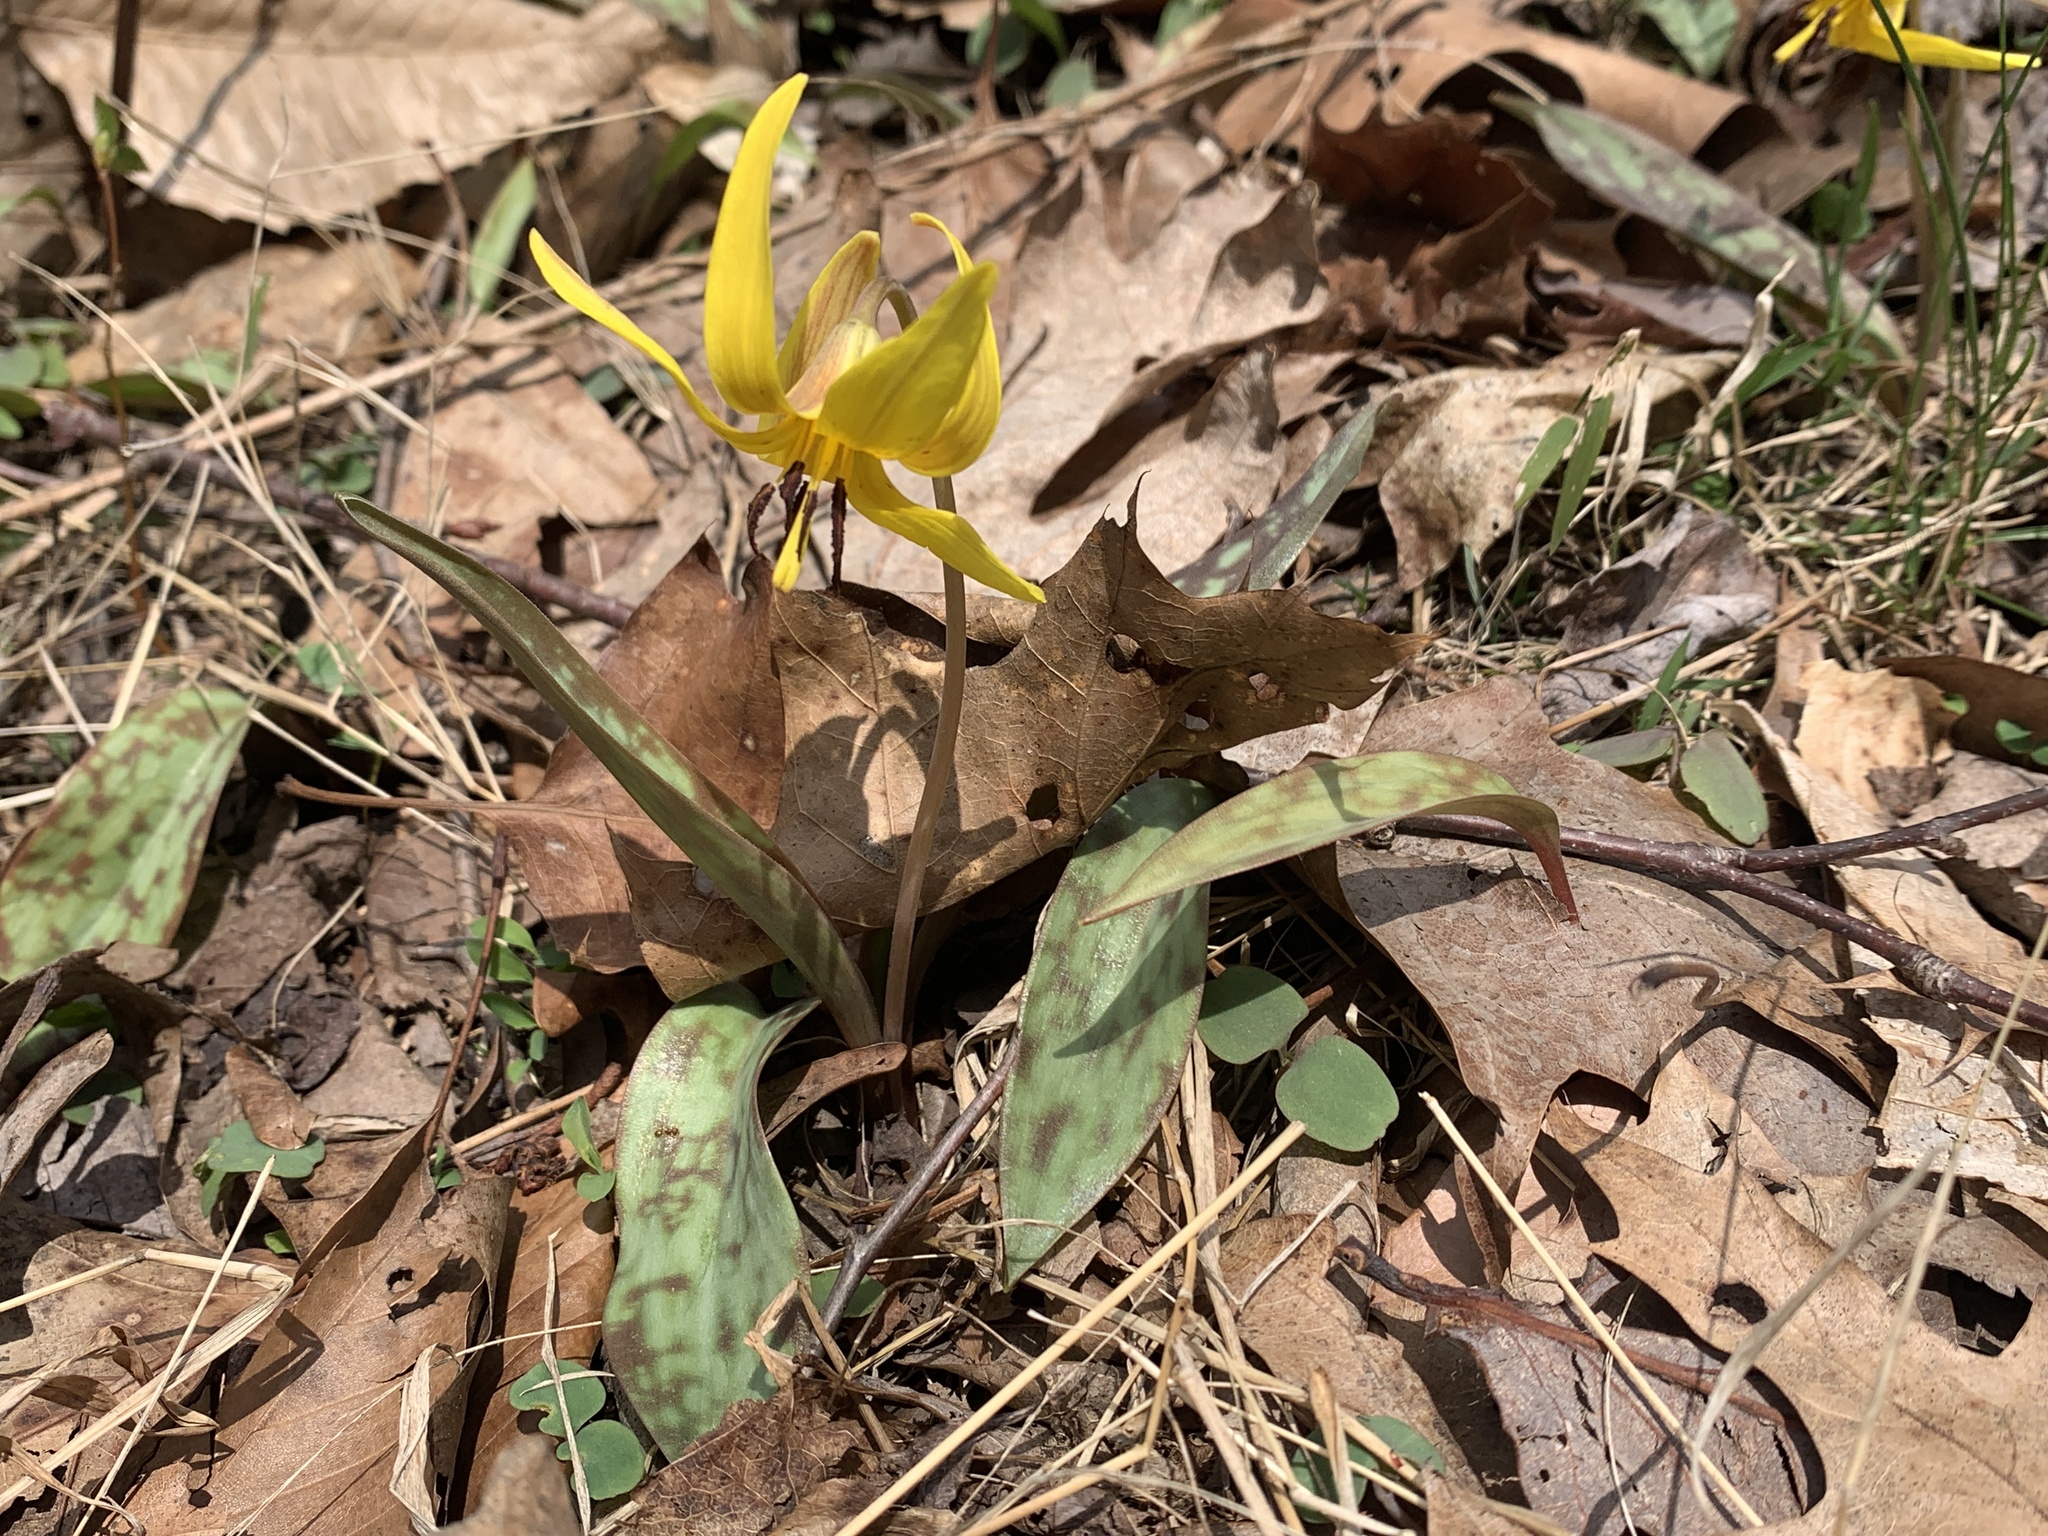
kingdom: Plantae
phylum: Tracheophyta
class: Liliopsida
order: Liliales
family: Liliaceae
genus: Erythronium
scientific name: Erythronium americanum
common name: Yellow adder's-tongue
